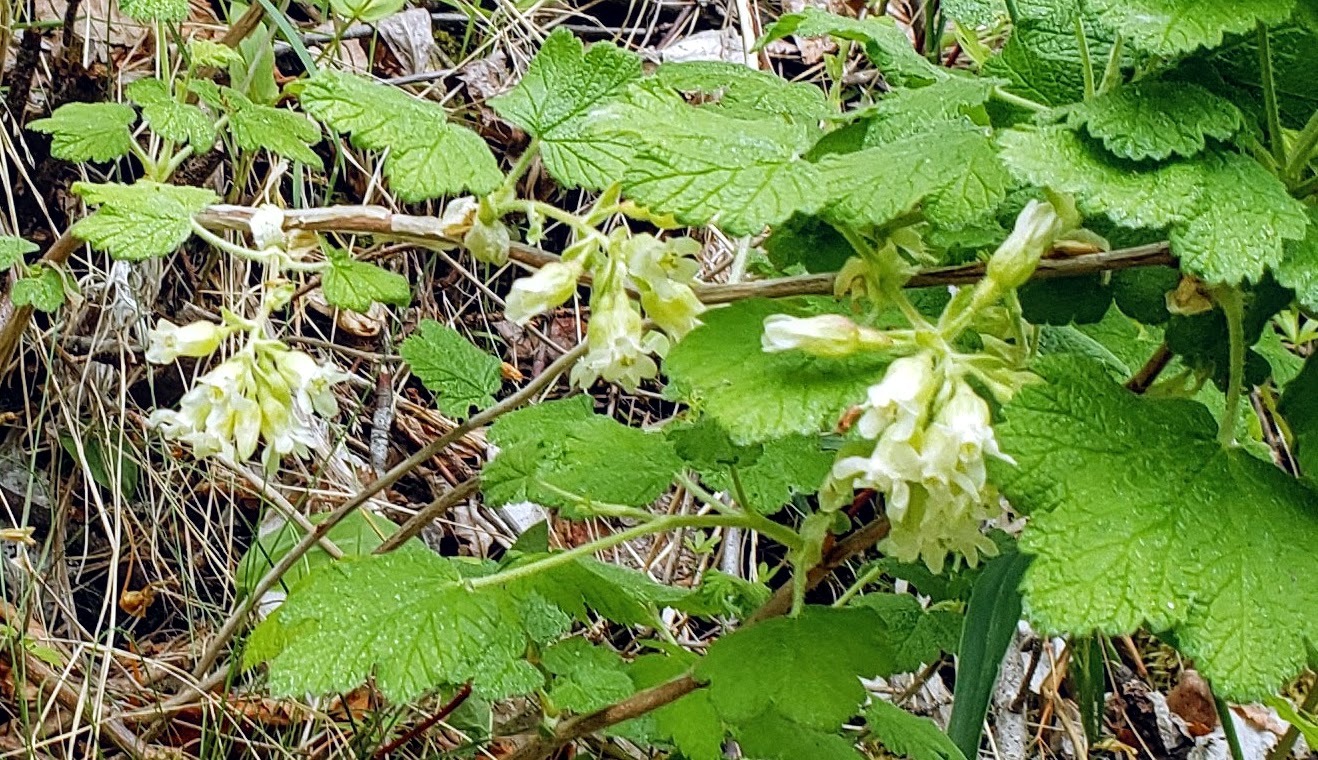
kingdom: Plantae
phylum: Tracheophyta
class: Magnoliopsida
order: Saxifragales
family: Grossulariaceae
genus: Ribes
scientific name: Ribes viscosissimum
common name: Sticky currant
